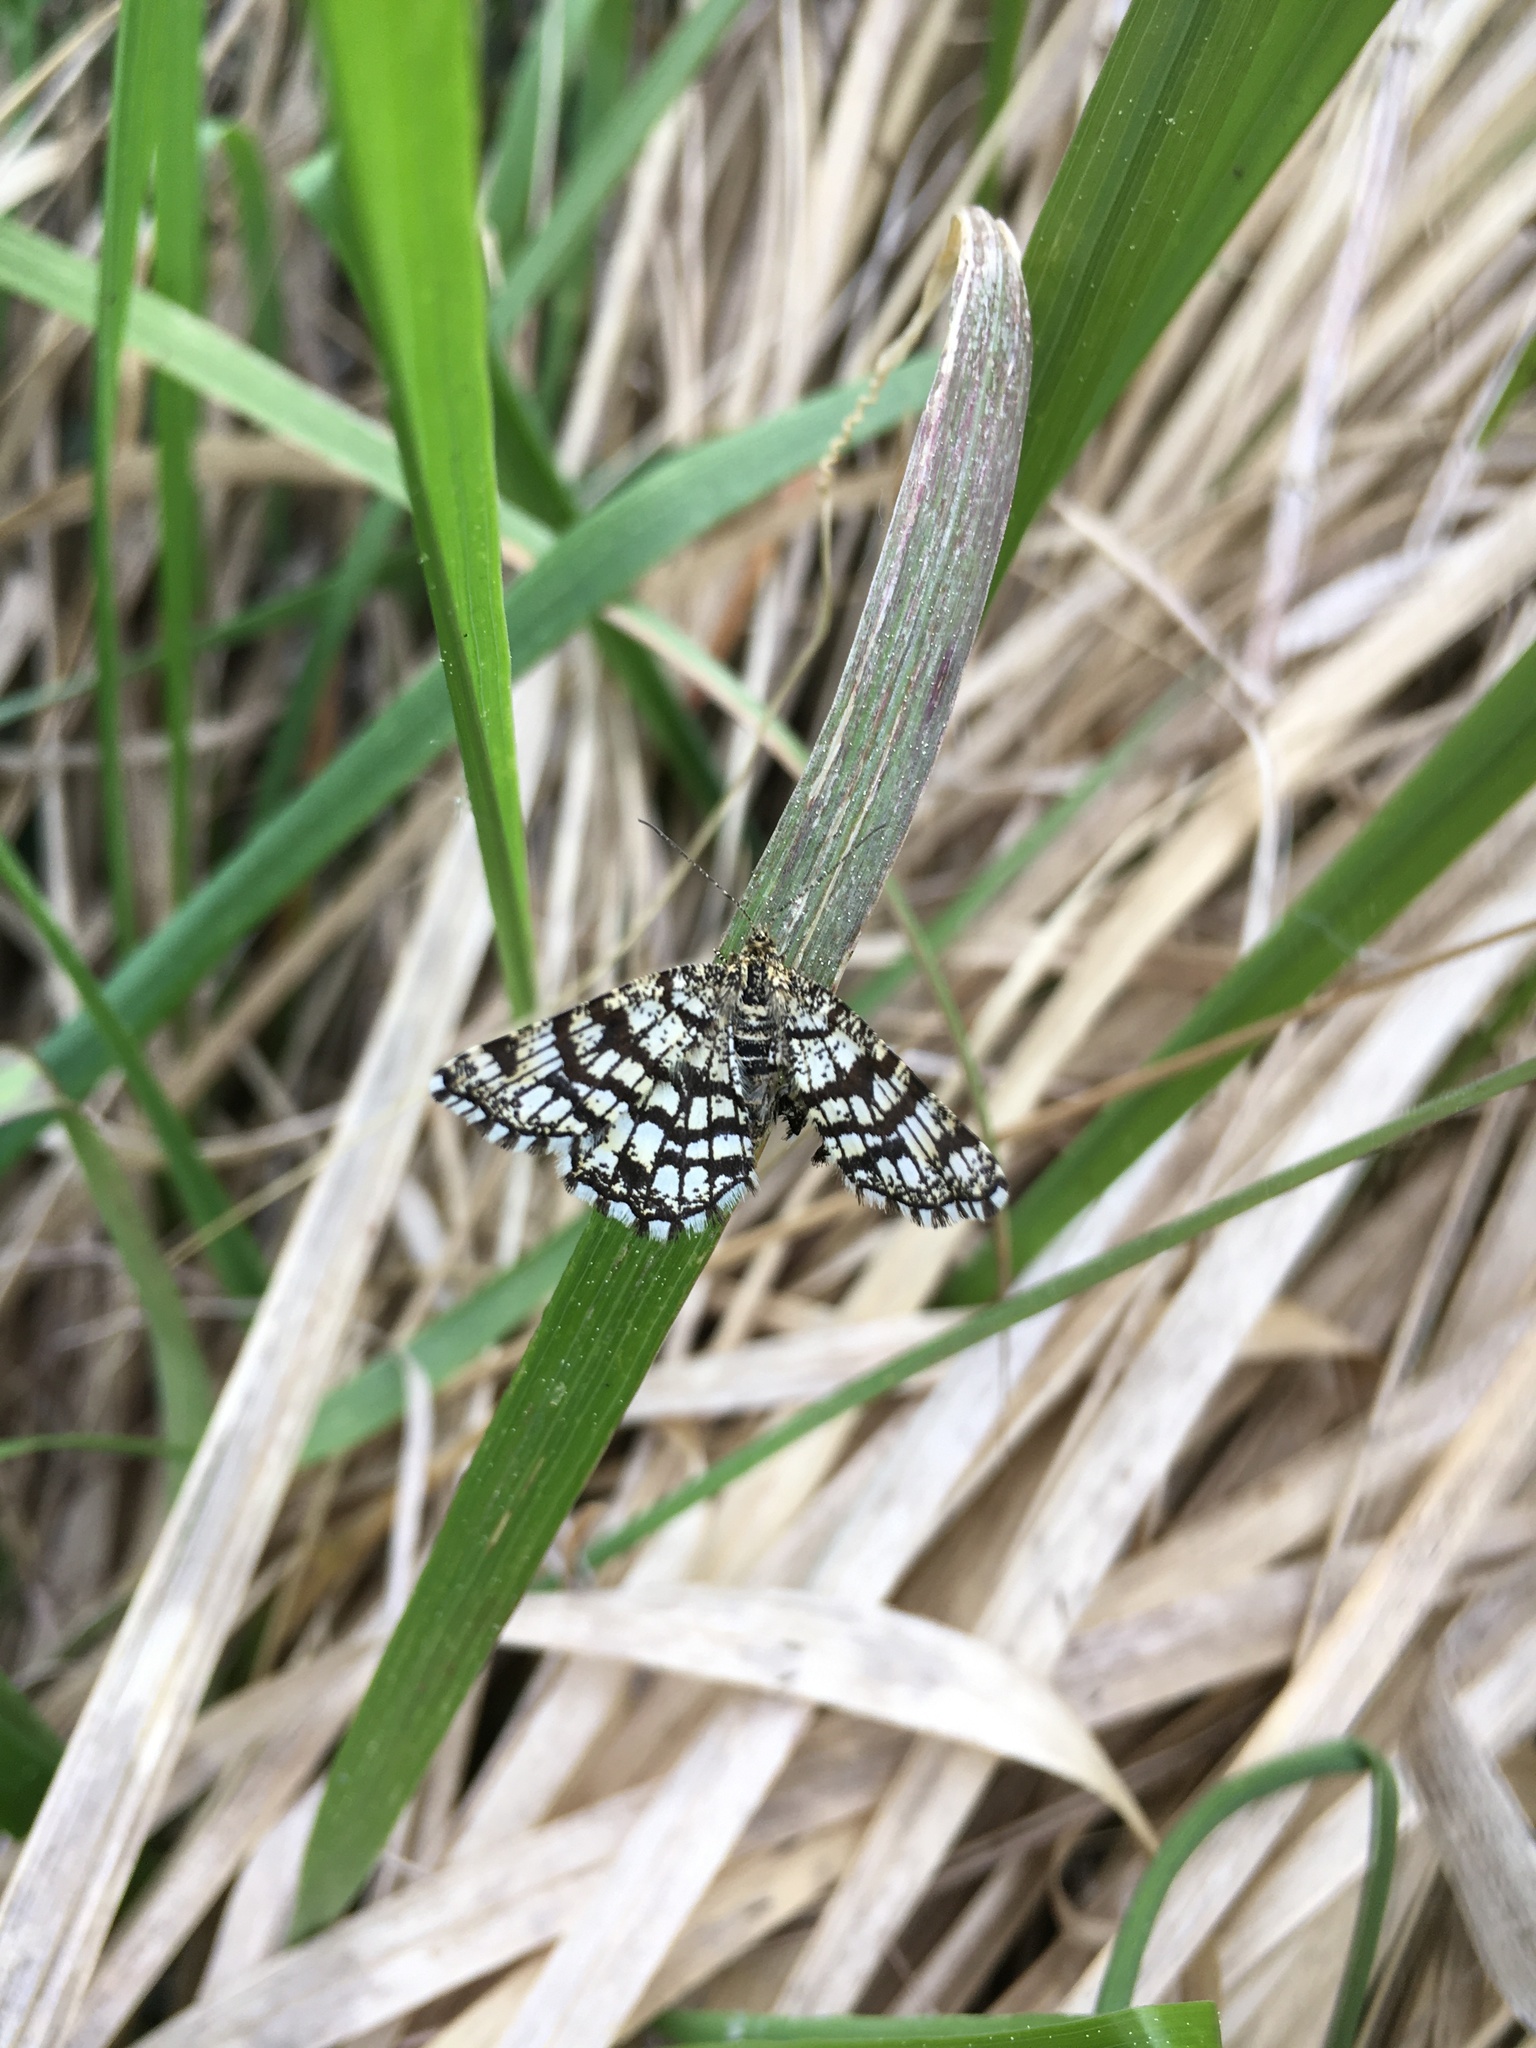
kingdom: Animalia
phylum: Arthropoda
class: Insecta
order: Lepidoptera
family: Geometridae
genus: Chiasmia
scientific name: Chiasmia clathrata
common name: Latticed heath
